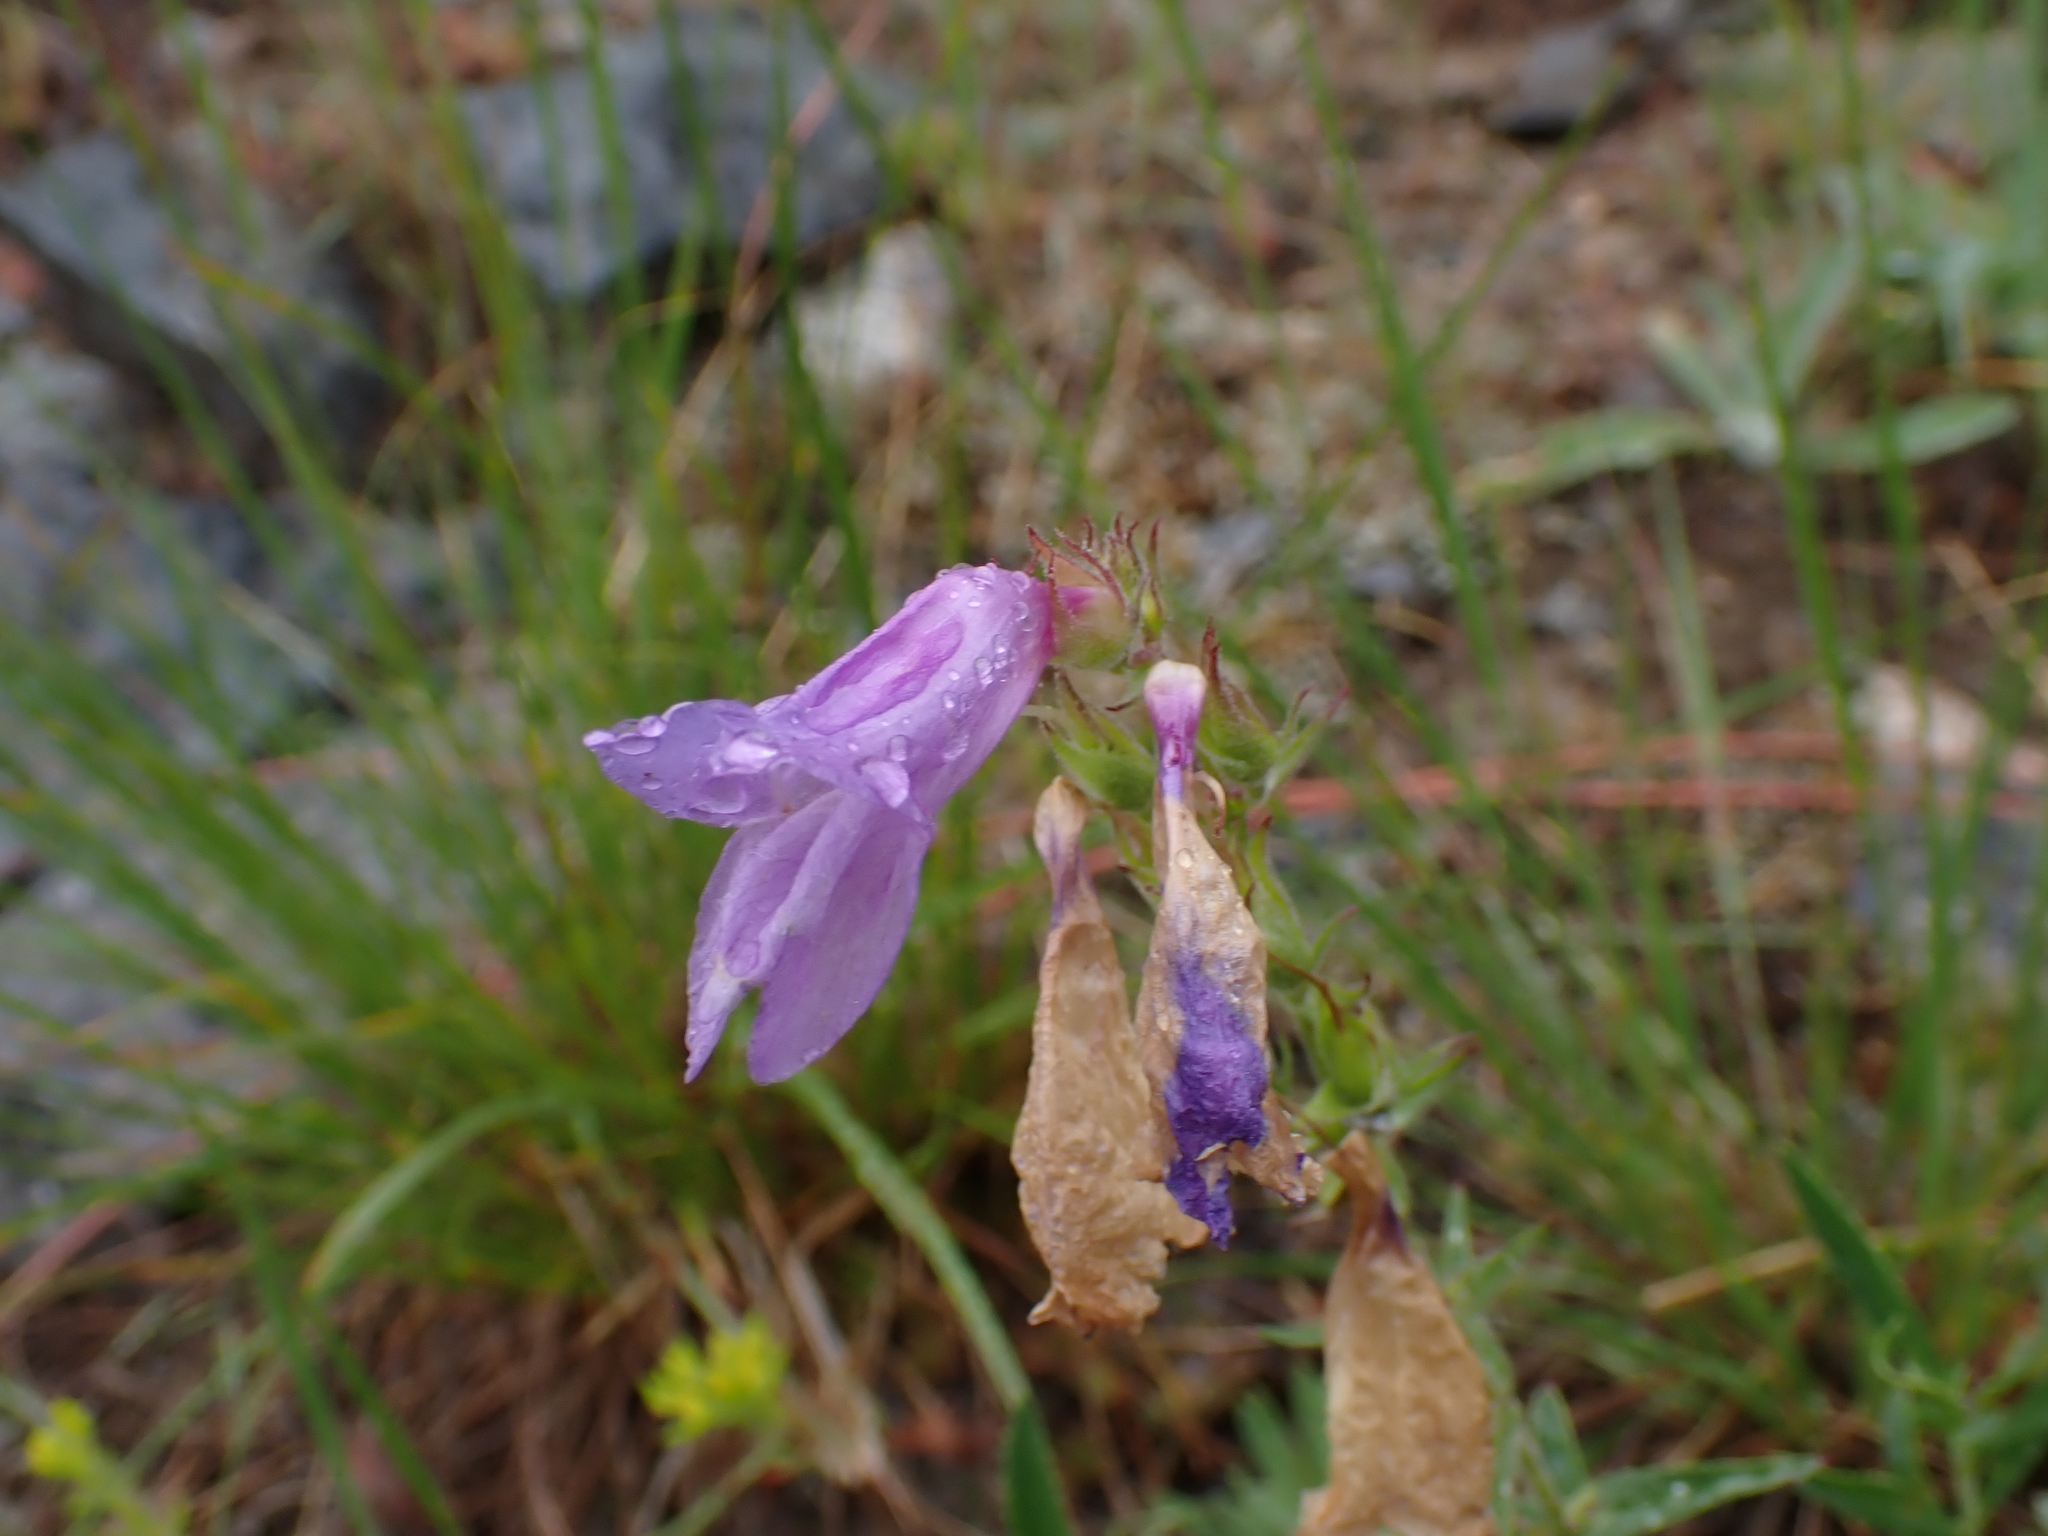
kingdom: Plantae
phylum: Tracheophyta
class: Magnoliopsida
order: Lamiales
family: Plantaginaceae
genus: Penstemon
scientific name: Penstemon fruticosus
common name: Bush penstemon
